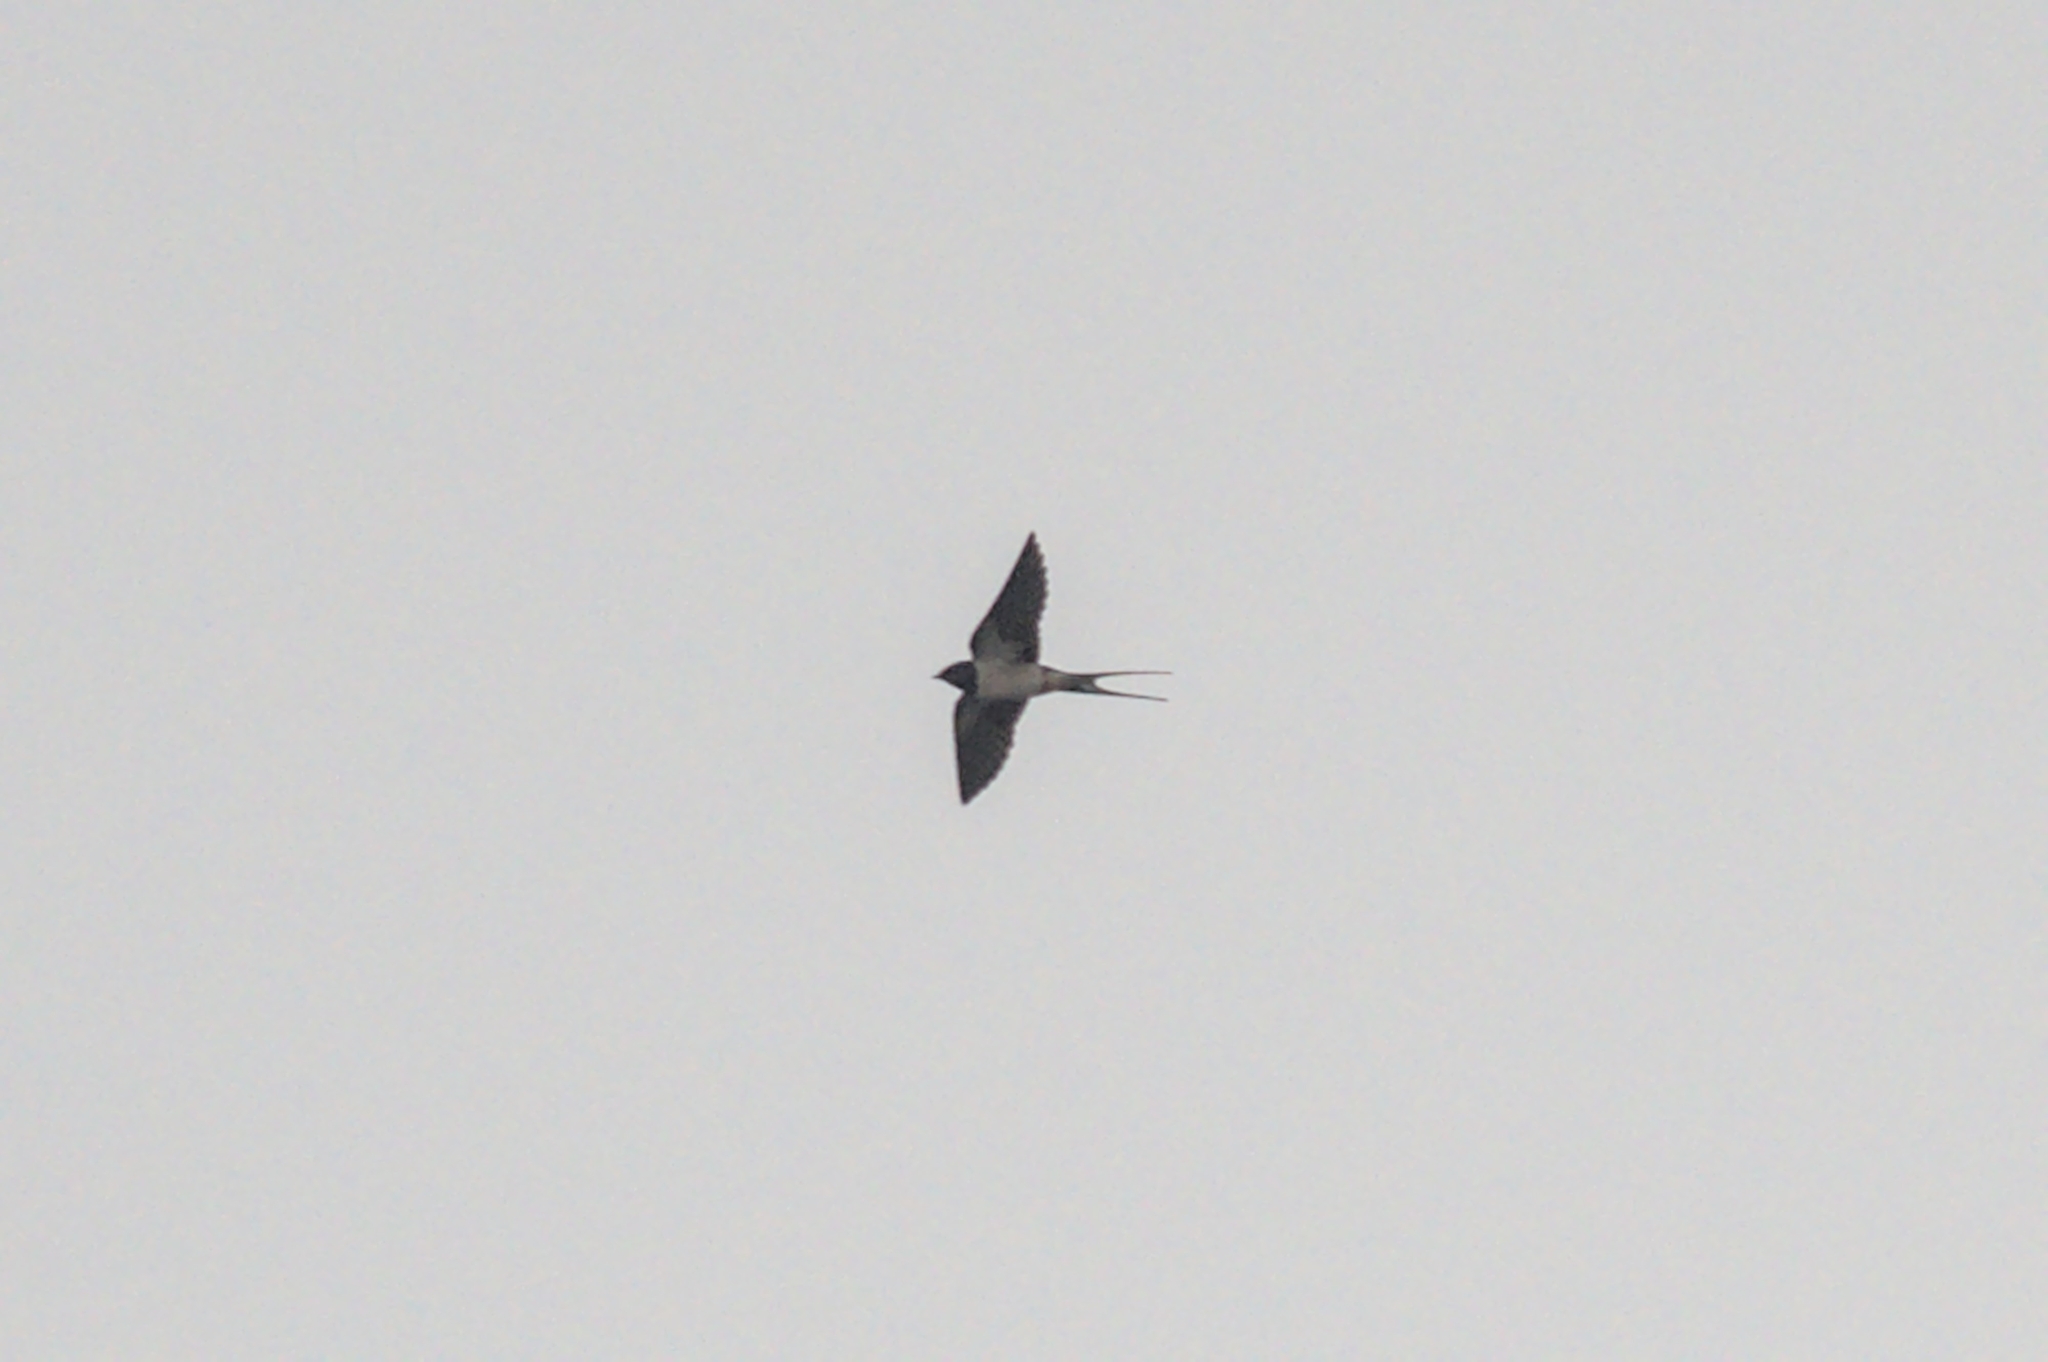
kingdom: Animalia
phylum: Chordata
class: Aves
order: Passeriformes
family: Hirundinidae
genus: Hirundo
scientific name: Hirundo rustica
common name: Barn swallow
